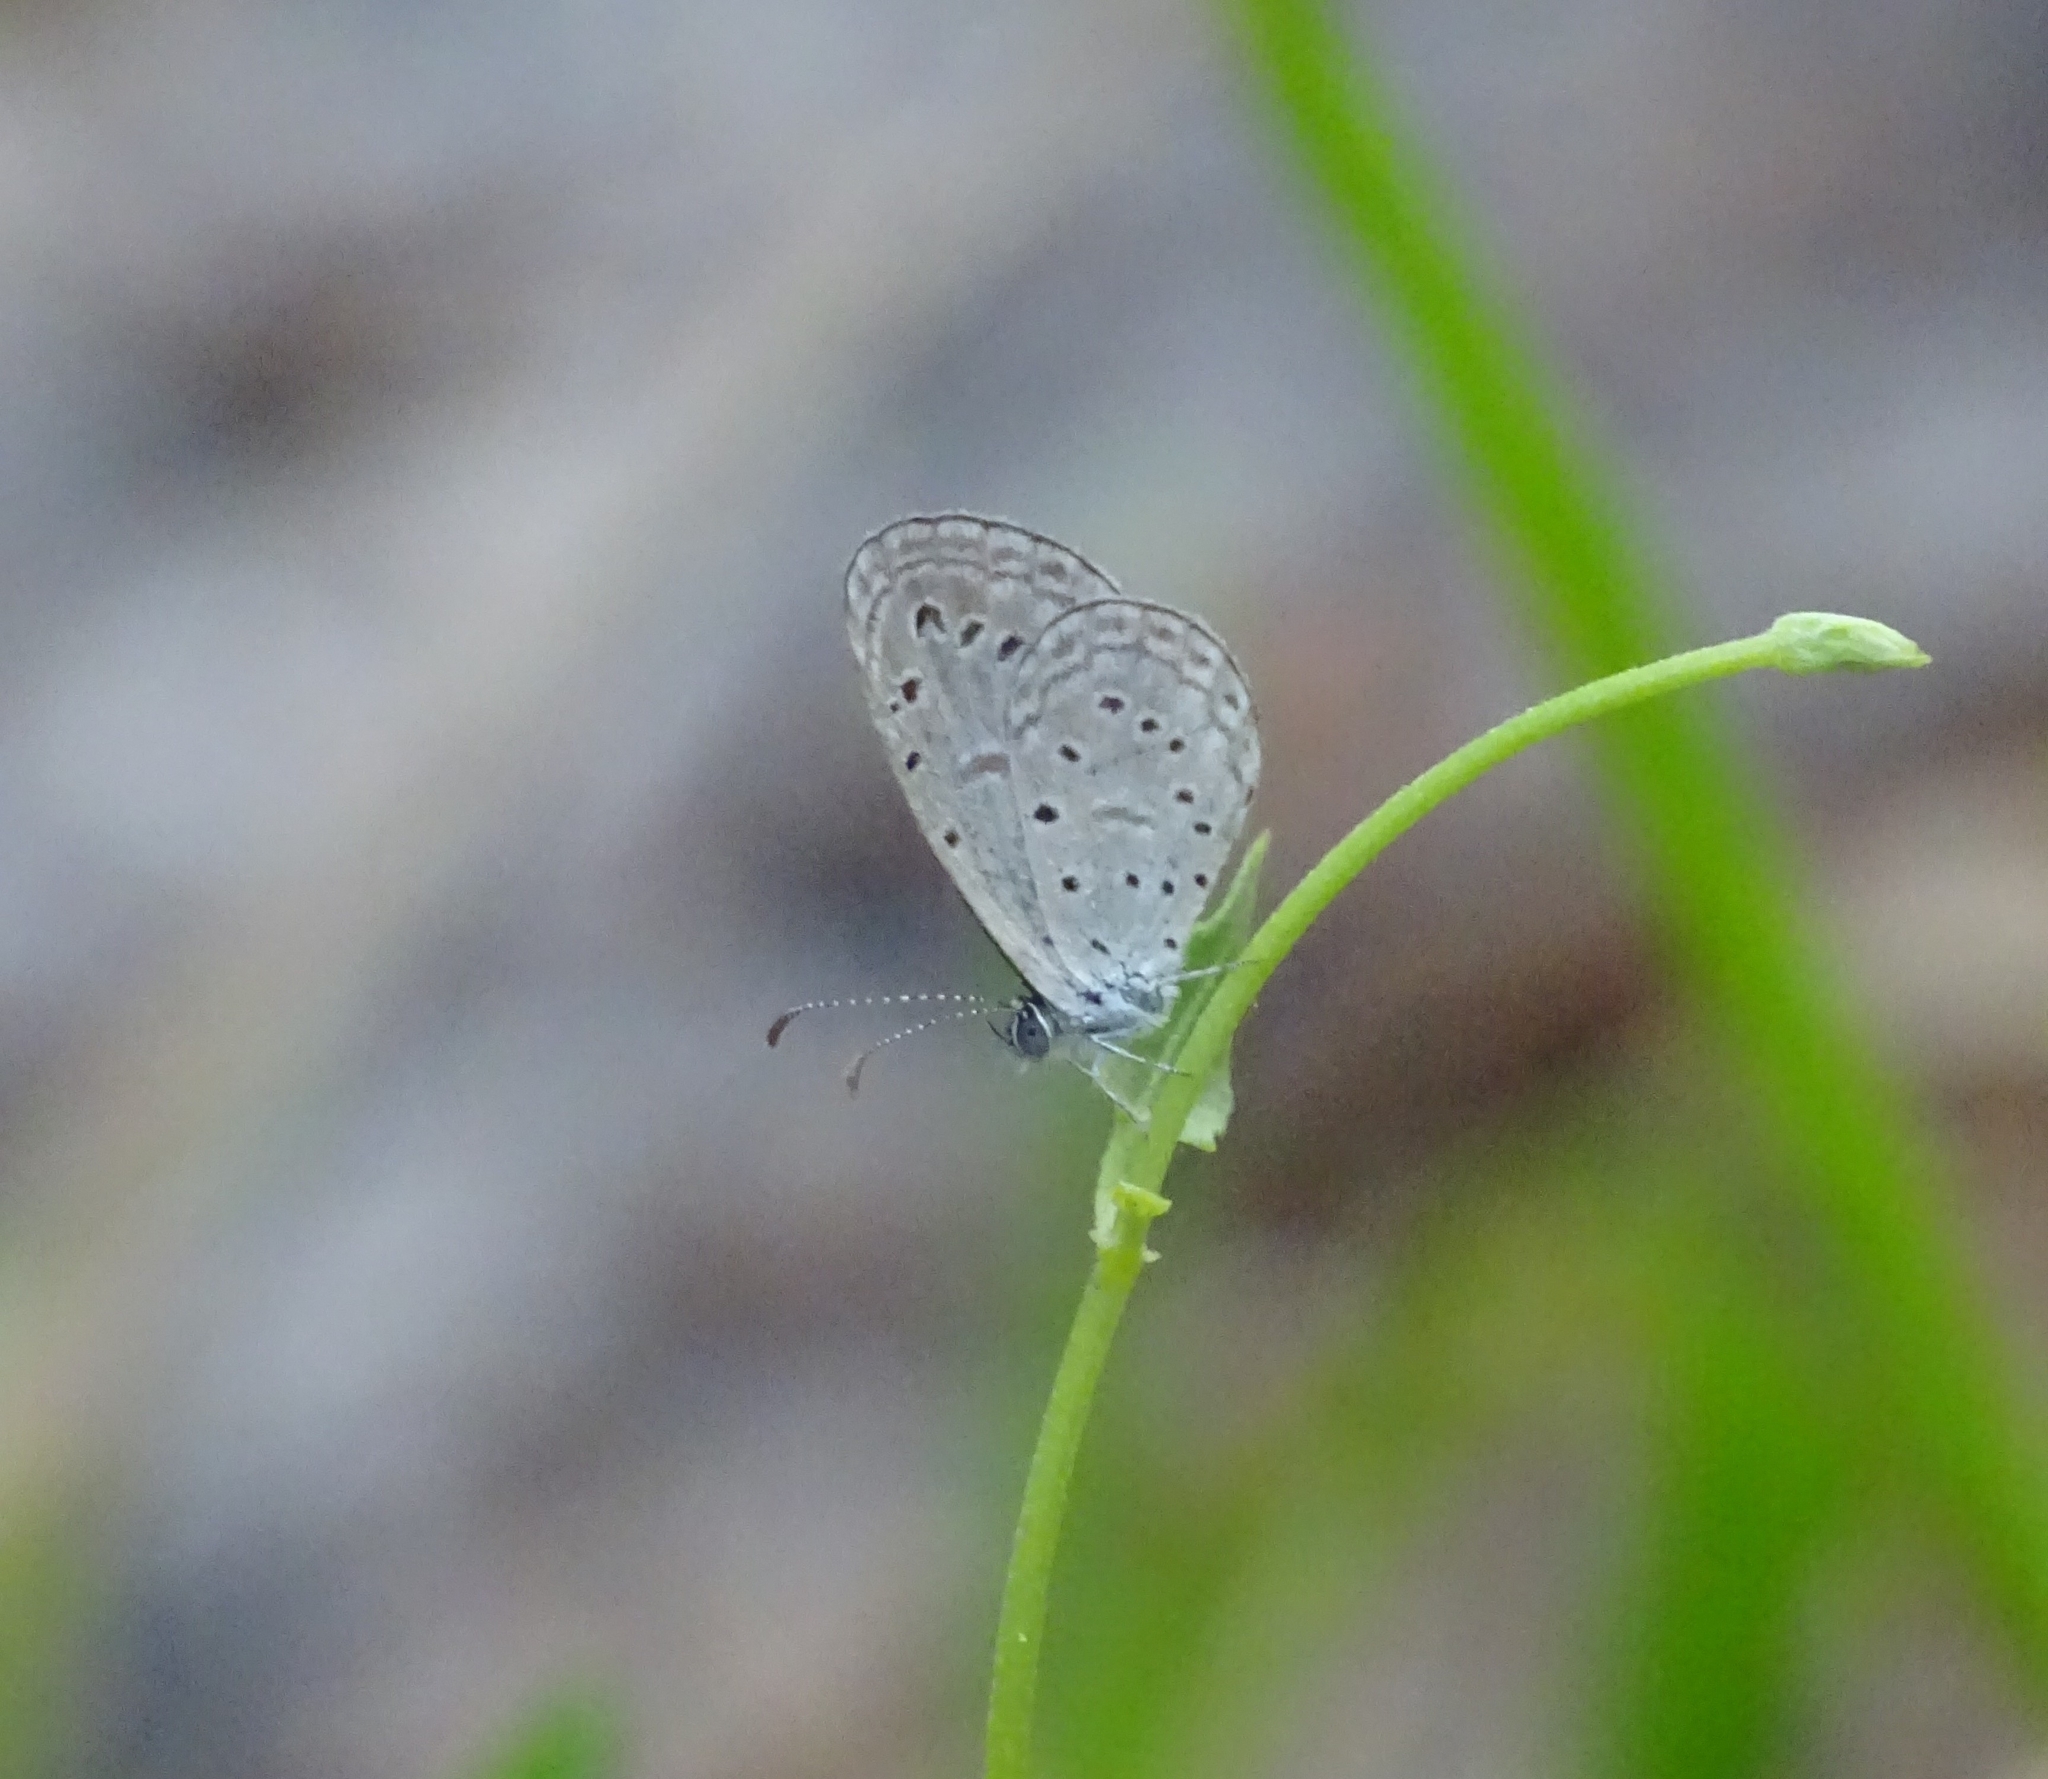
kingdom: Animalia
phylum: Arthropoda
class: Insecta
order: Lepidoptera
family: Lycaenidae
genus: Zizula
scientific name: Zizula hylax
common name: Gaika blue
